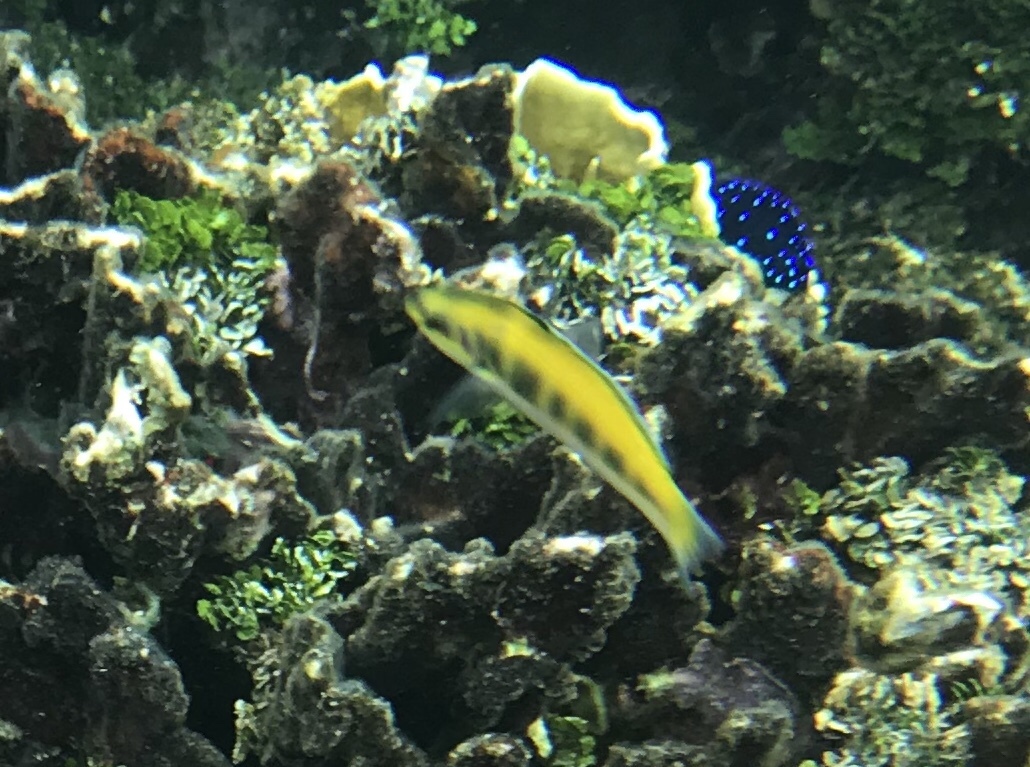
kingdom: Animalia
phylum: Chordata
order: Perciformes
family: Labridae
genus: Thalassoma
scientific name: Thalassoma bifasciatum
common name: Bluehead wrasse
